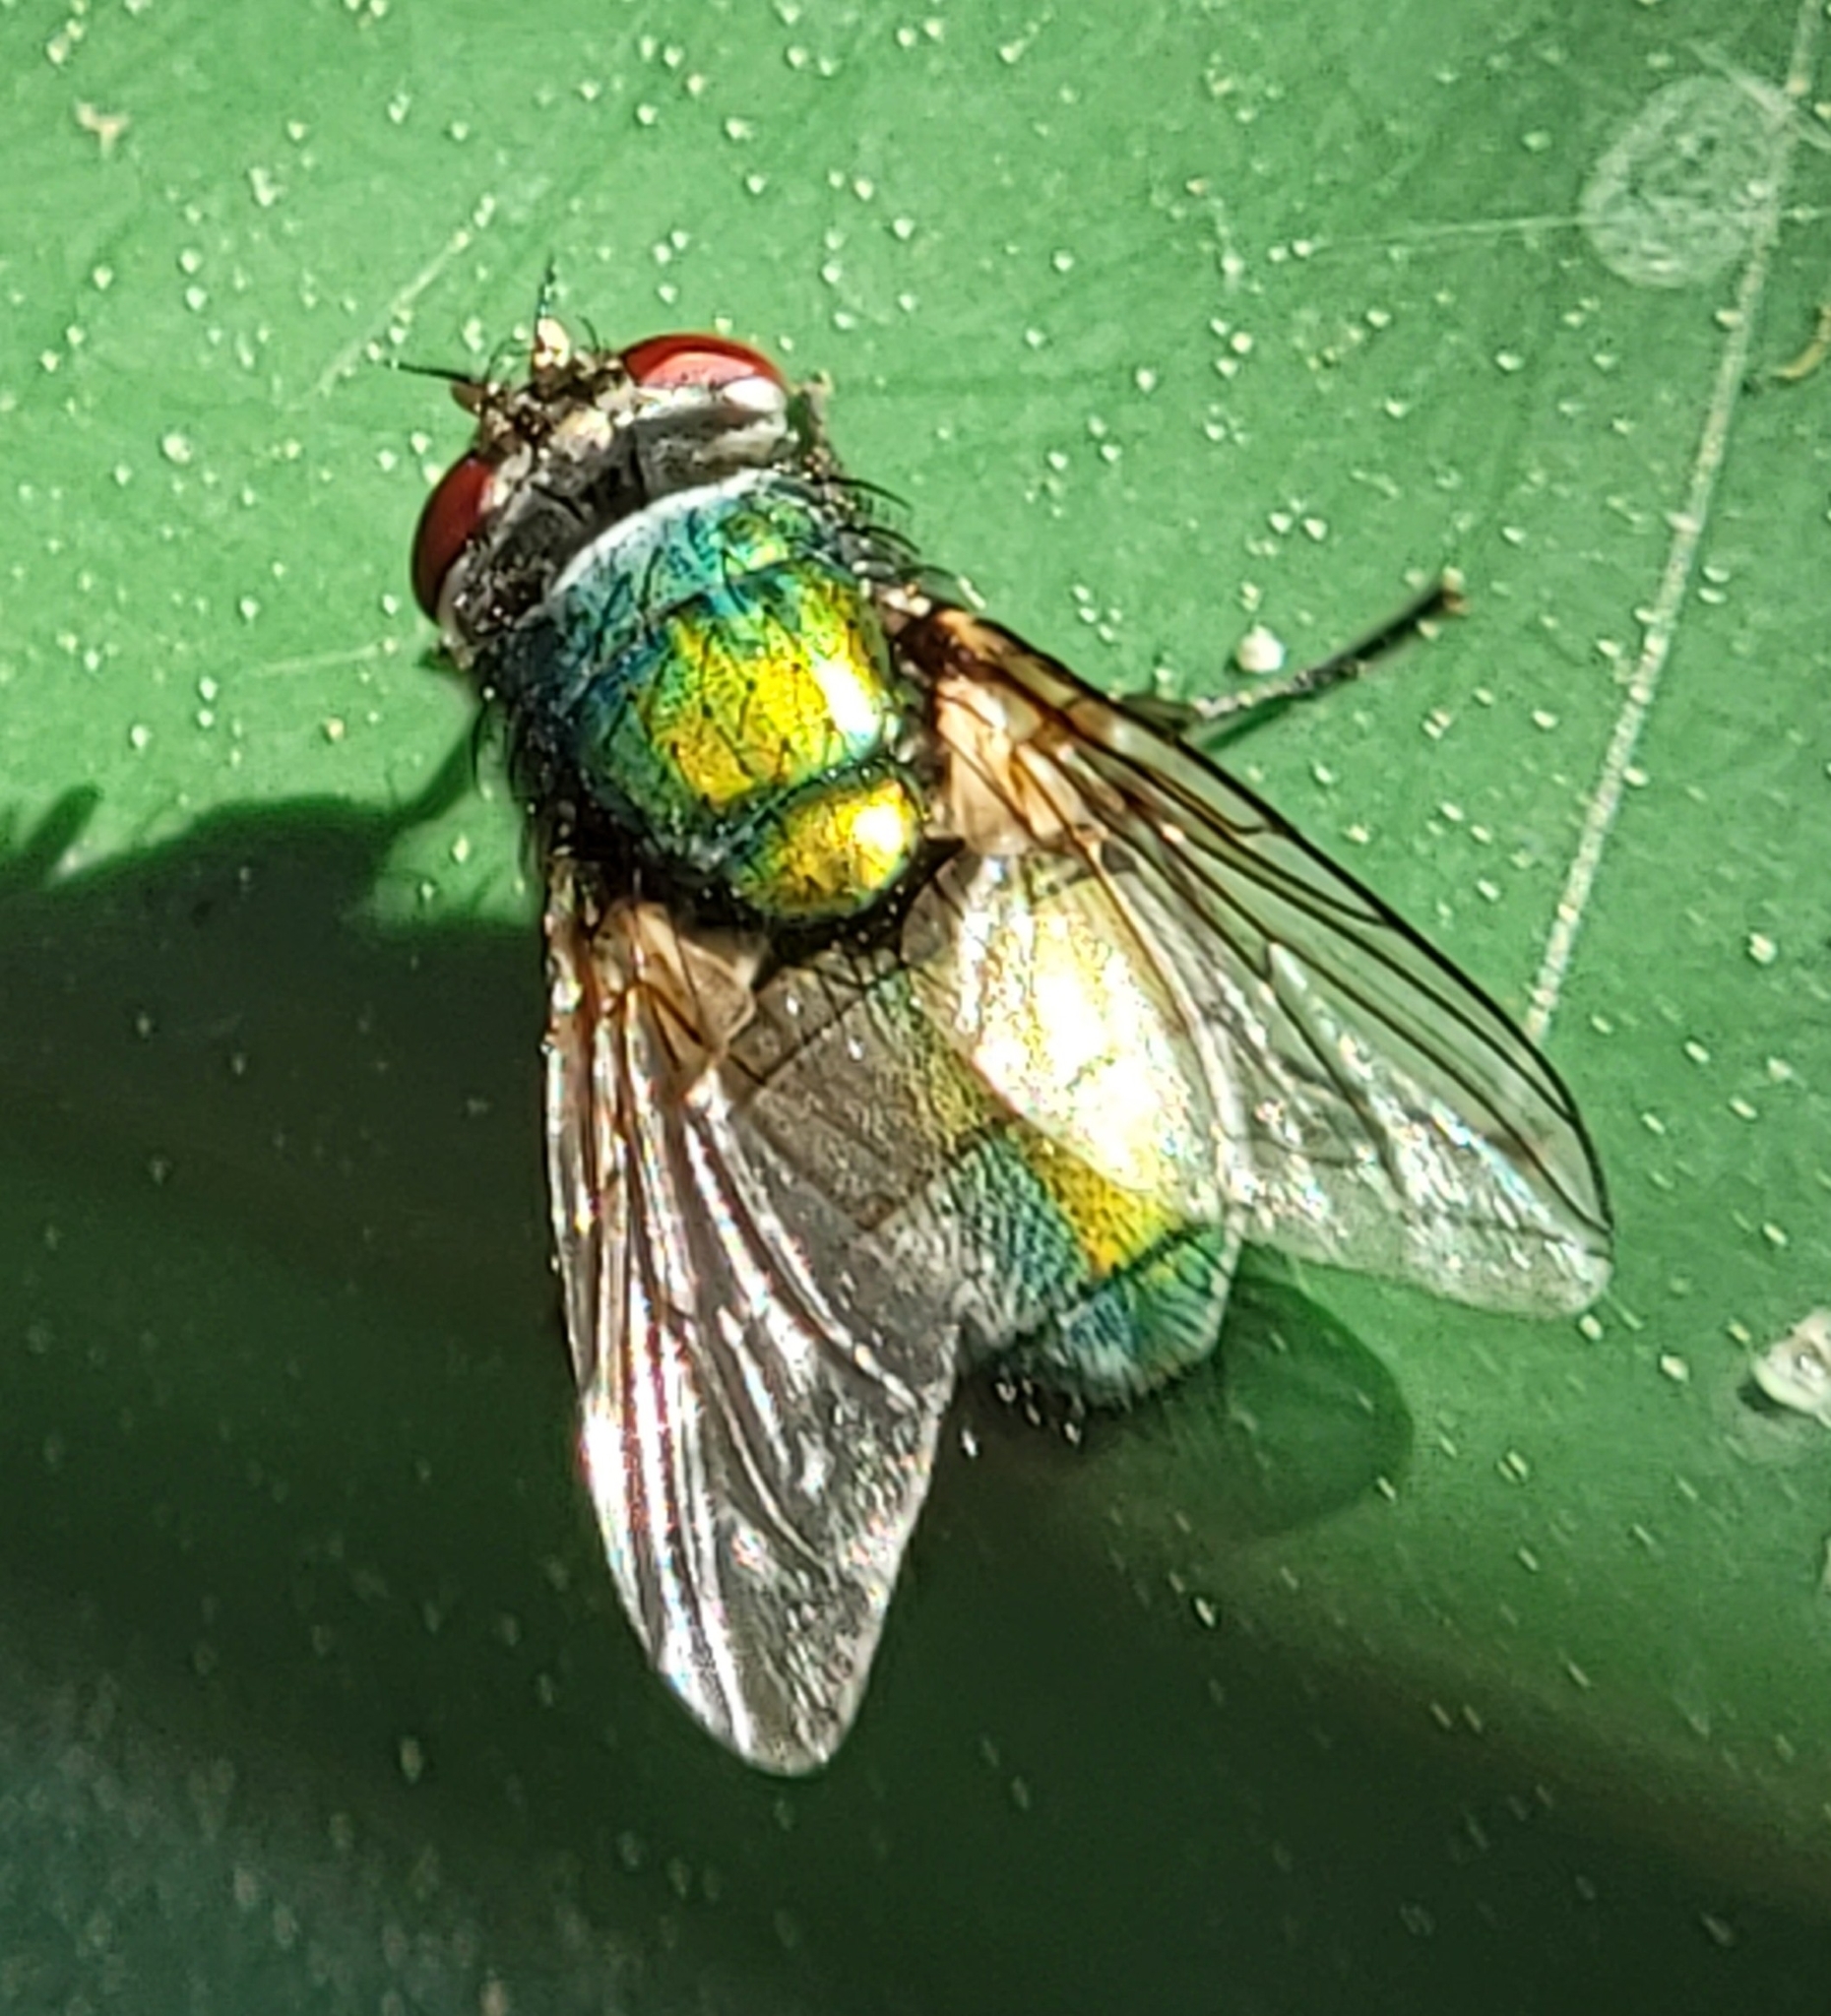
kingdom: Animalia
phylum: Arthropoda
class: Insecta
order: Diptera
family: Calliphoridae
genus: Lucilia
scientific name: Lucilia sericata
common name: Blow fly
